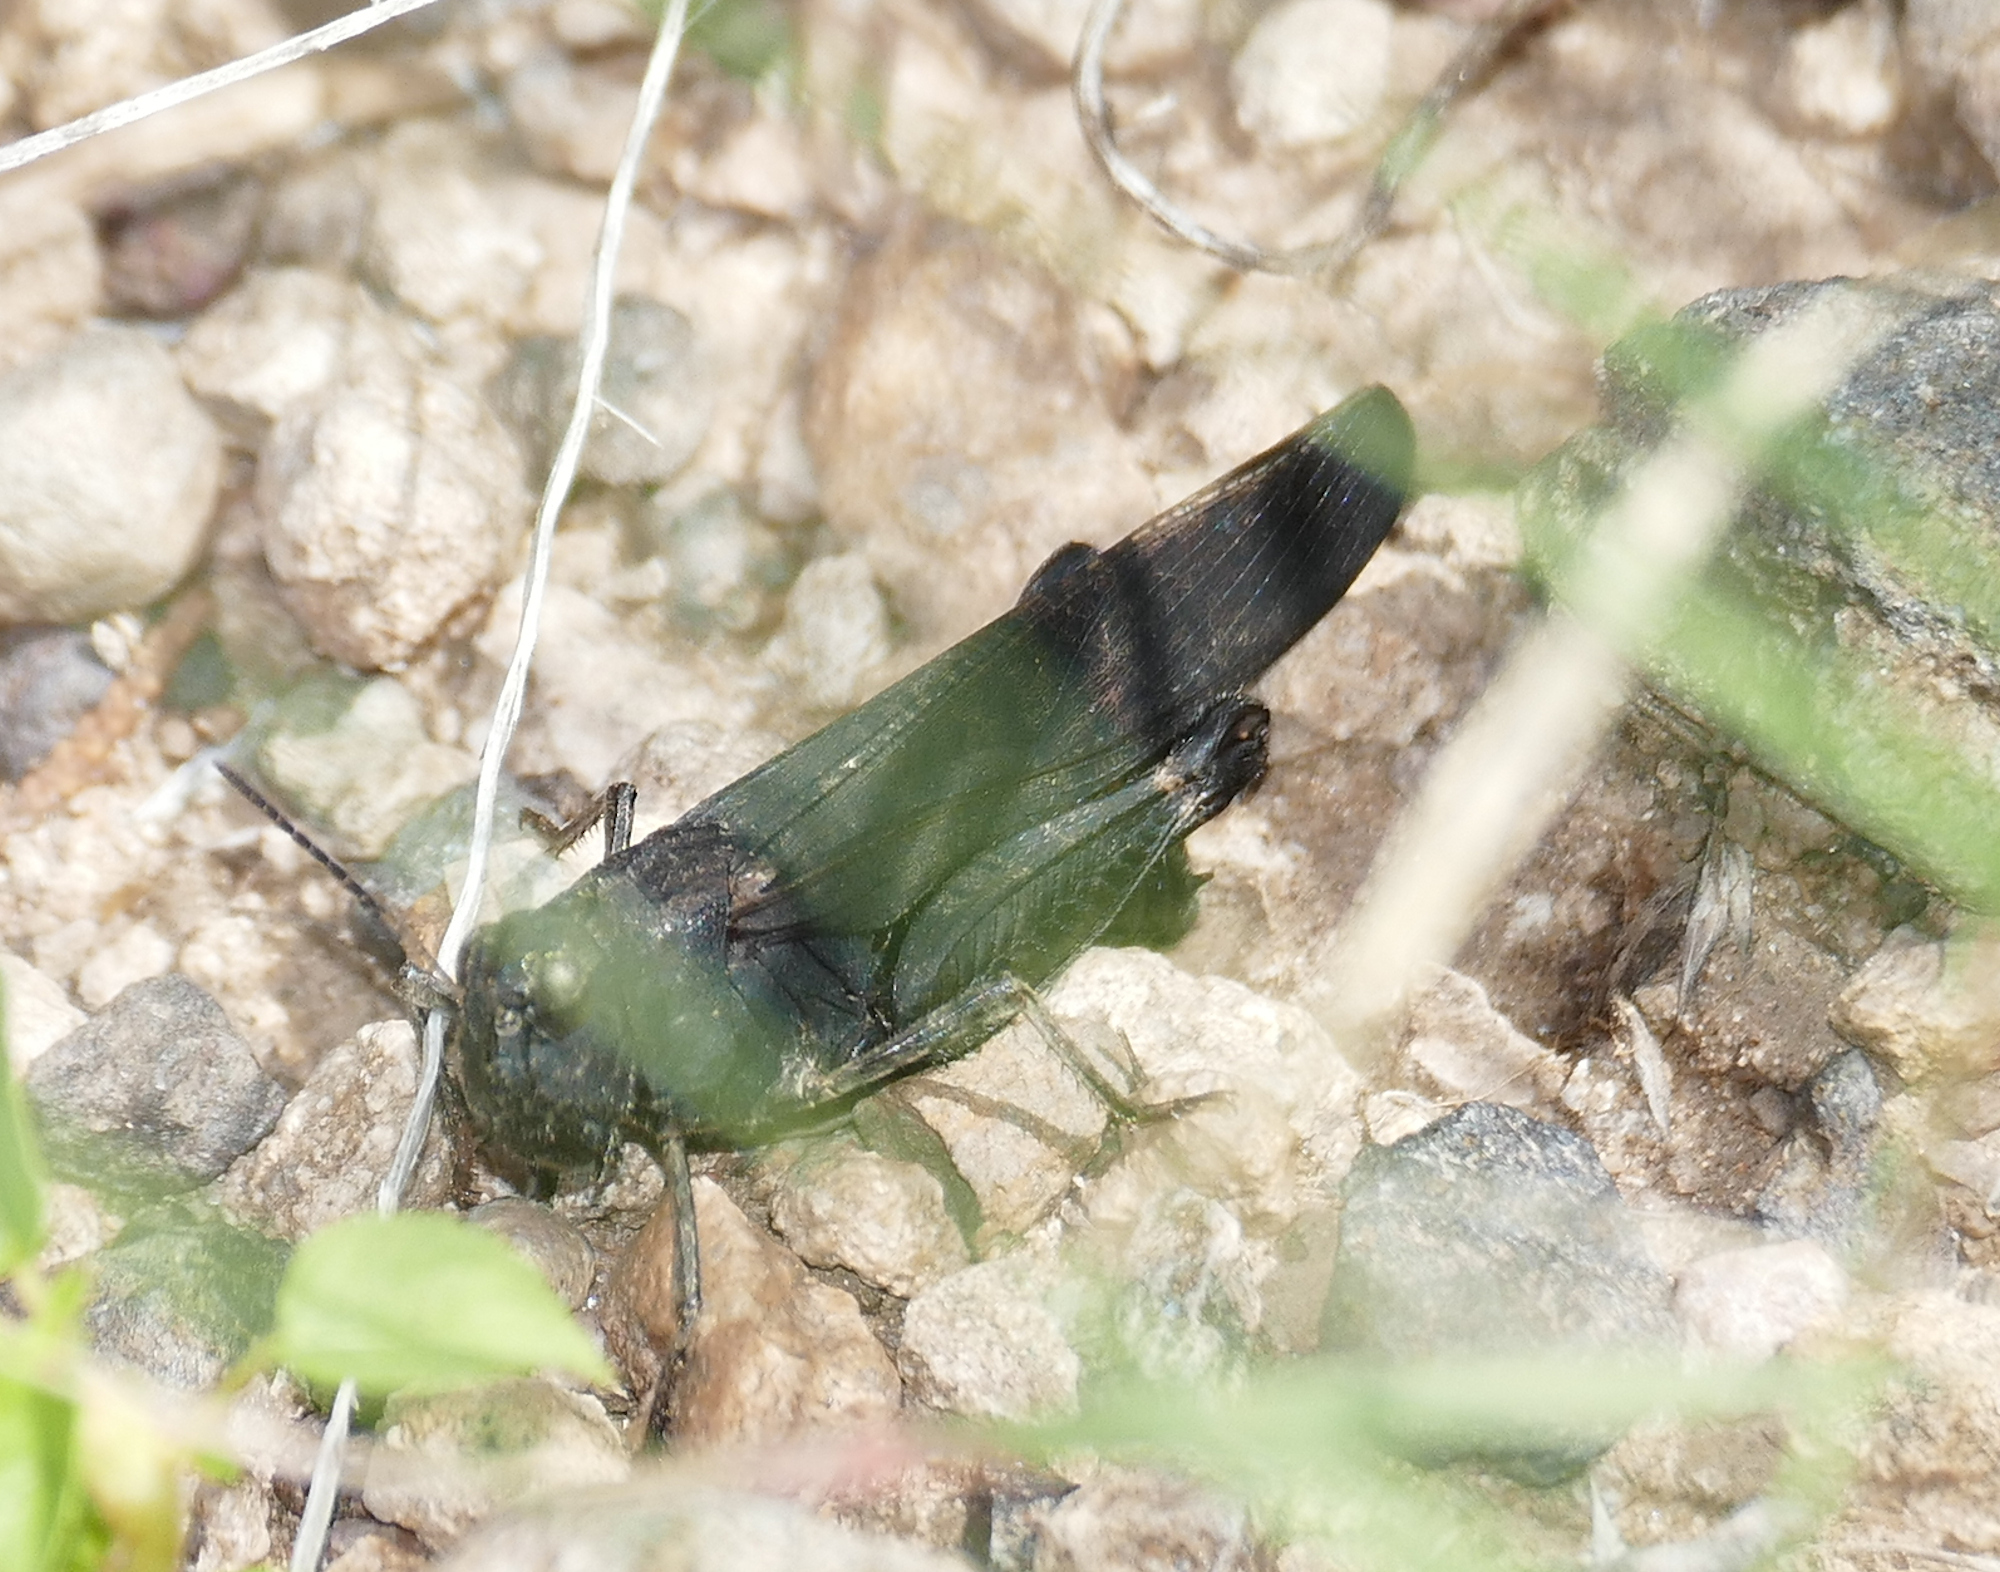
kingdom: Animalia
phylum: Arthropoda
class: Insecta
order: Orthoptera
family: Acrididae
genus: Arphia
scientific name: Arphia pseudo-nietana
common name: Red-winged grasshopper
